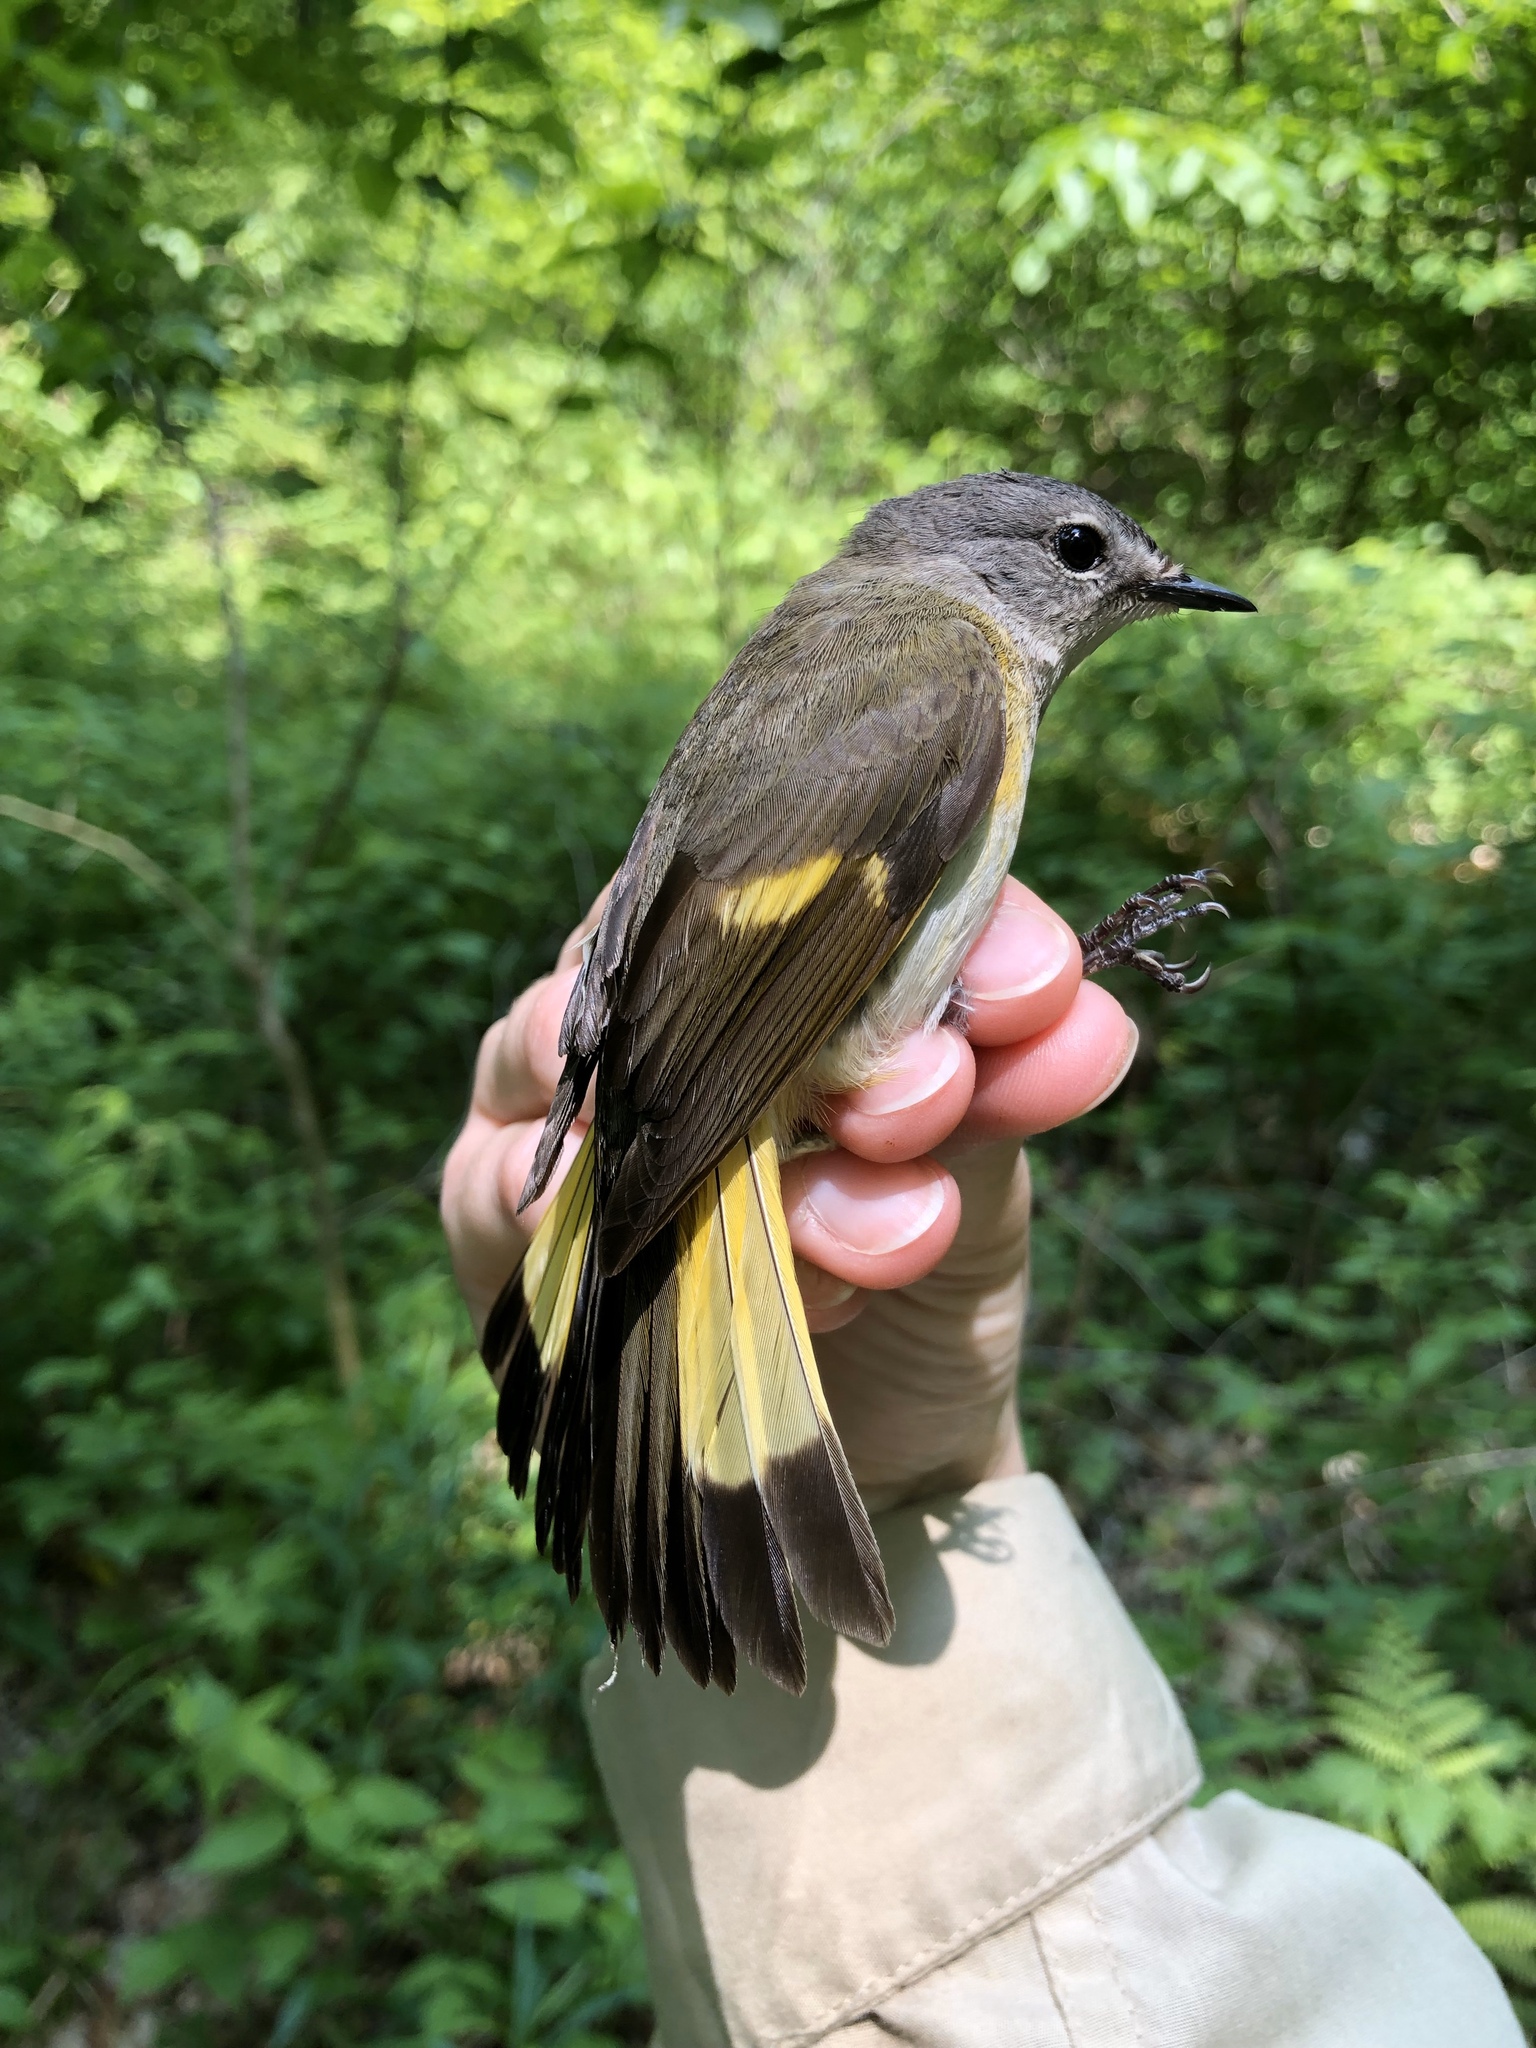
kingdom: Animalia
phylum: Chordata
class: Aves
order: Passeriformes
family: Parulidae
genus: Setophaga
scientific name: Setophaga ruticilla
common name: American redstart
